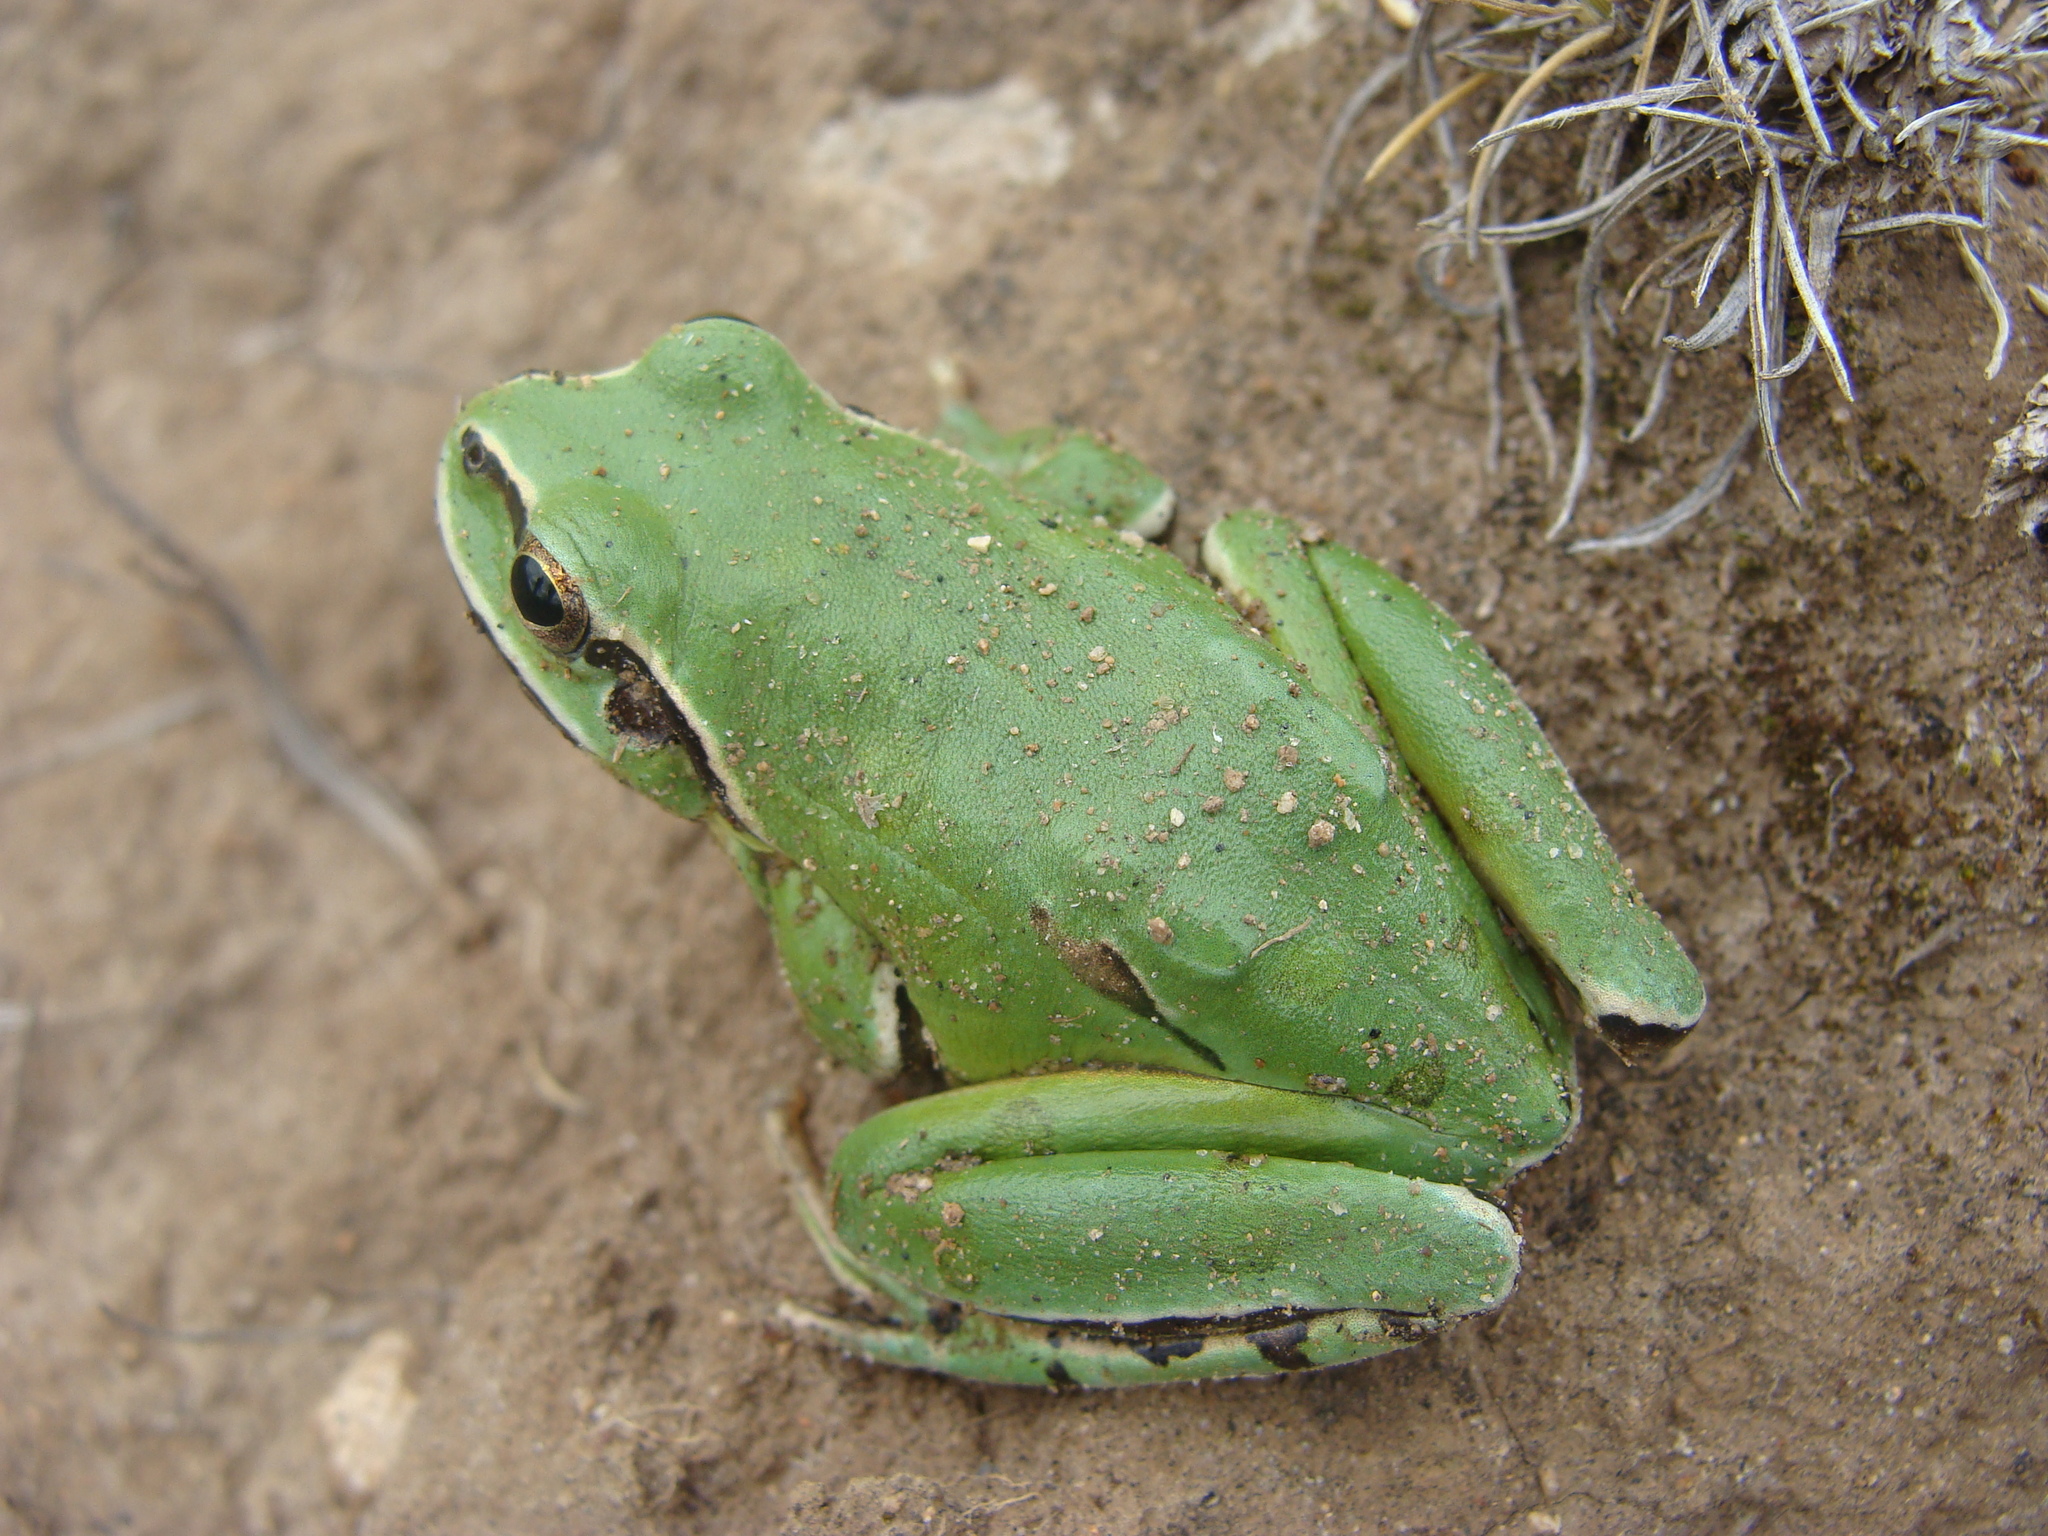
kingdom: Animalia
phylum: Chordata
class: Amphibia
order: Anura
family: Hylidae
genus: Dryophytes
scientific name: Dryophytes eximius
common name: Mountain treefrog
